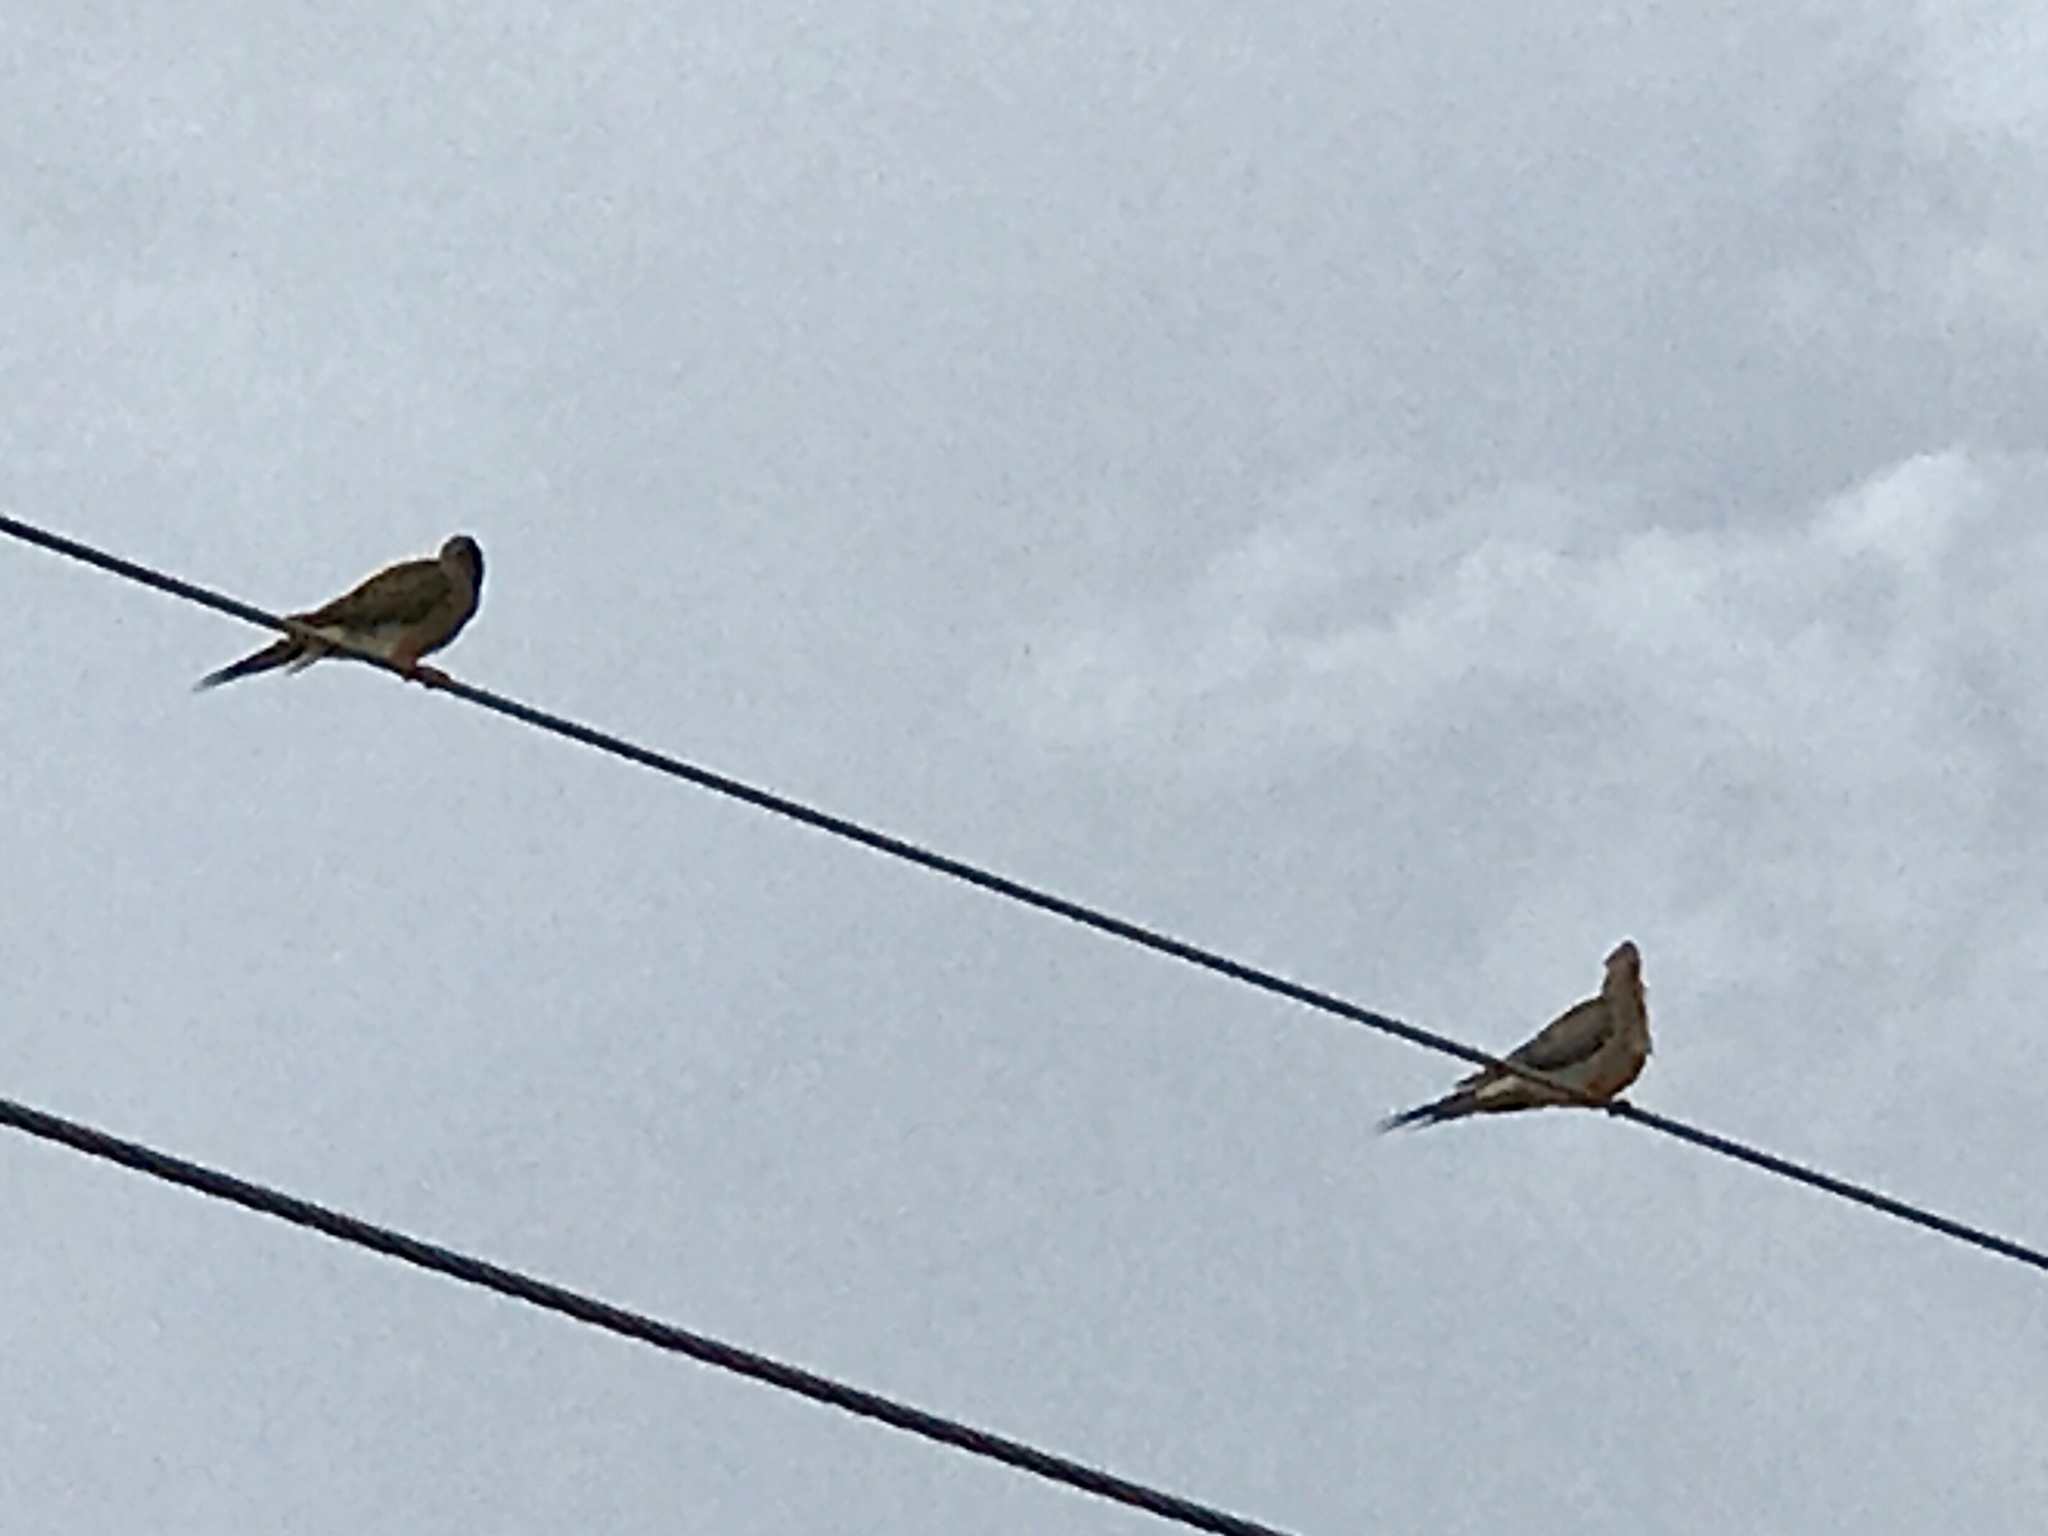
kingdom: Animalia
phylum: Chordata
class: Aves
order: Columbiformes
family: Columbidae
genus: Zenaida
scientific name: Zenaida macroura
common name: Mourning dove
